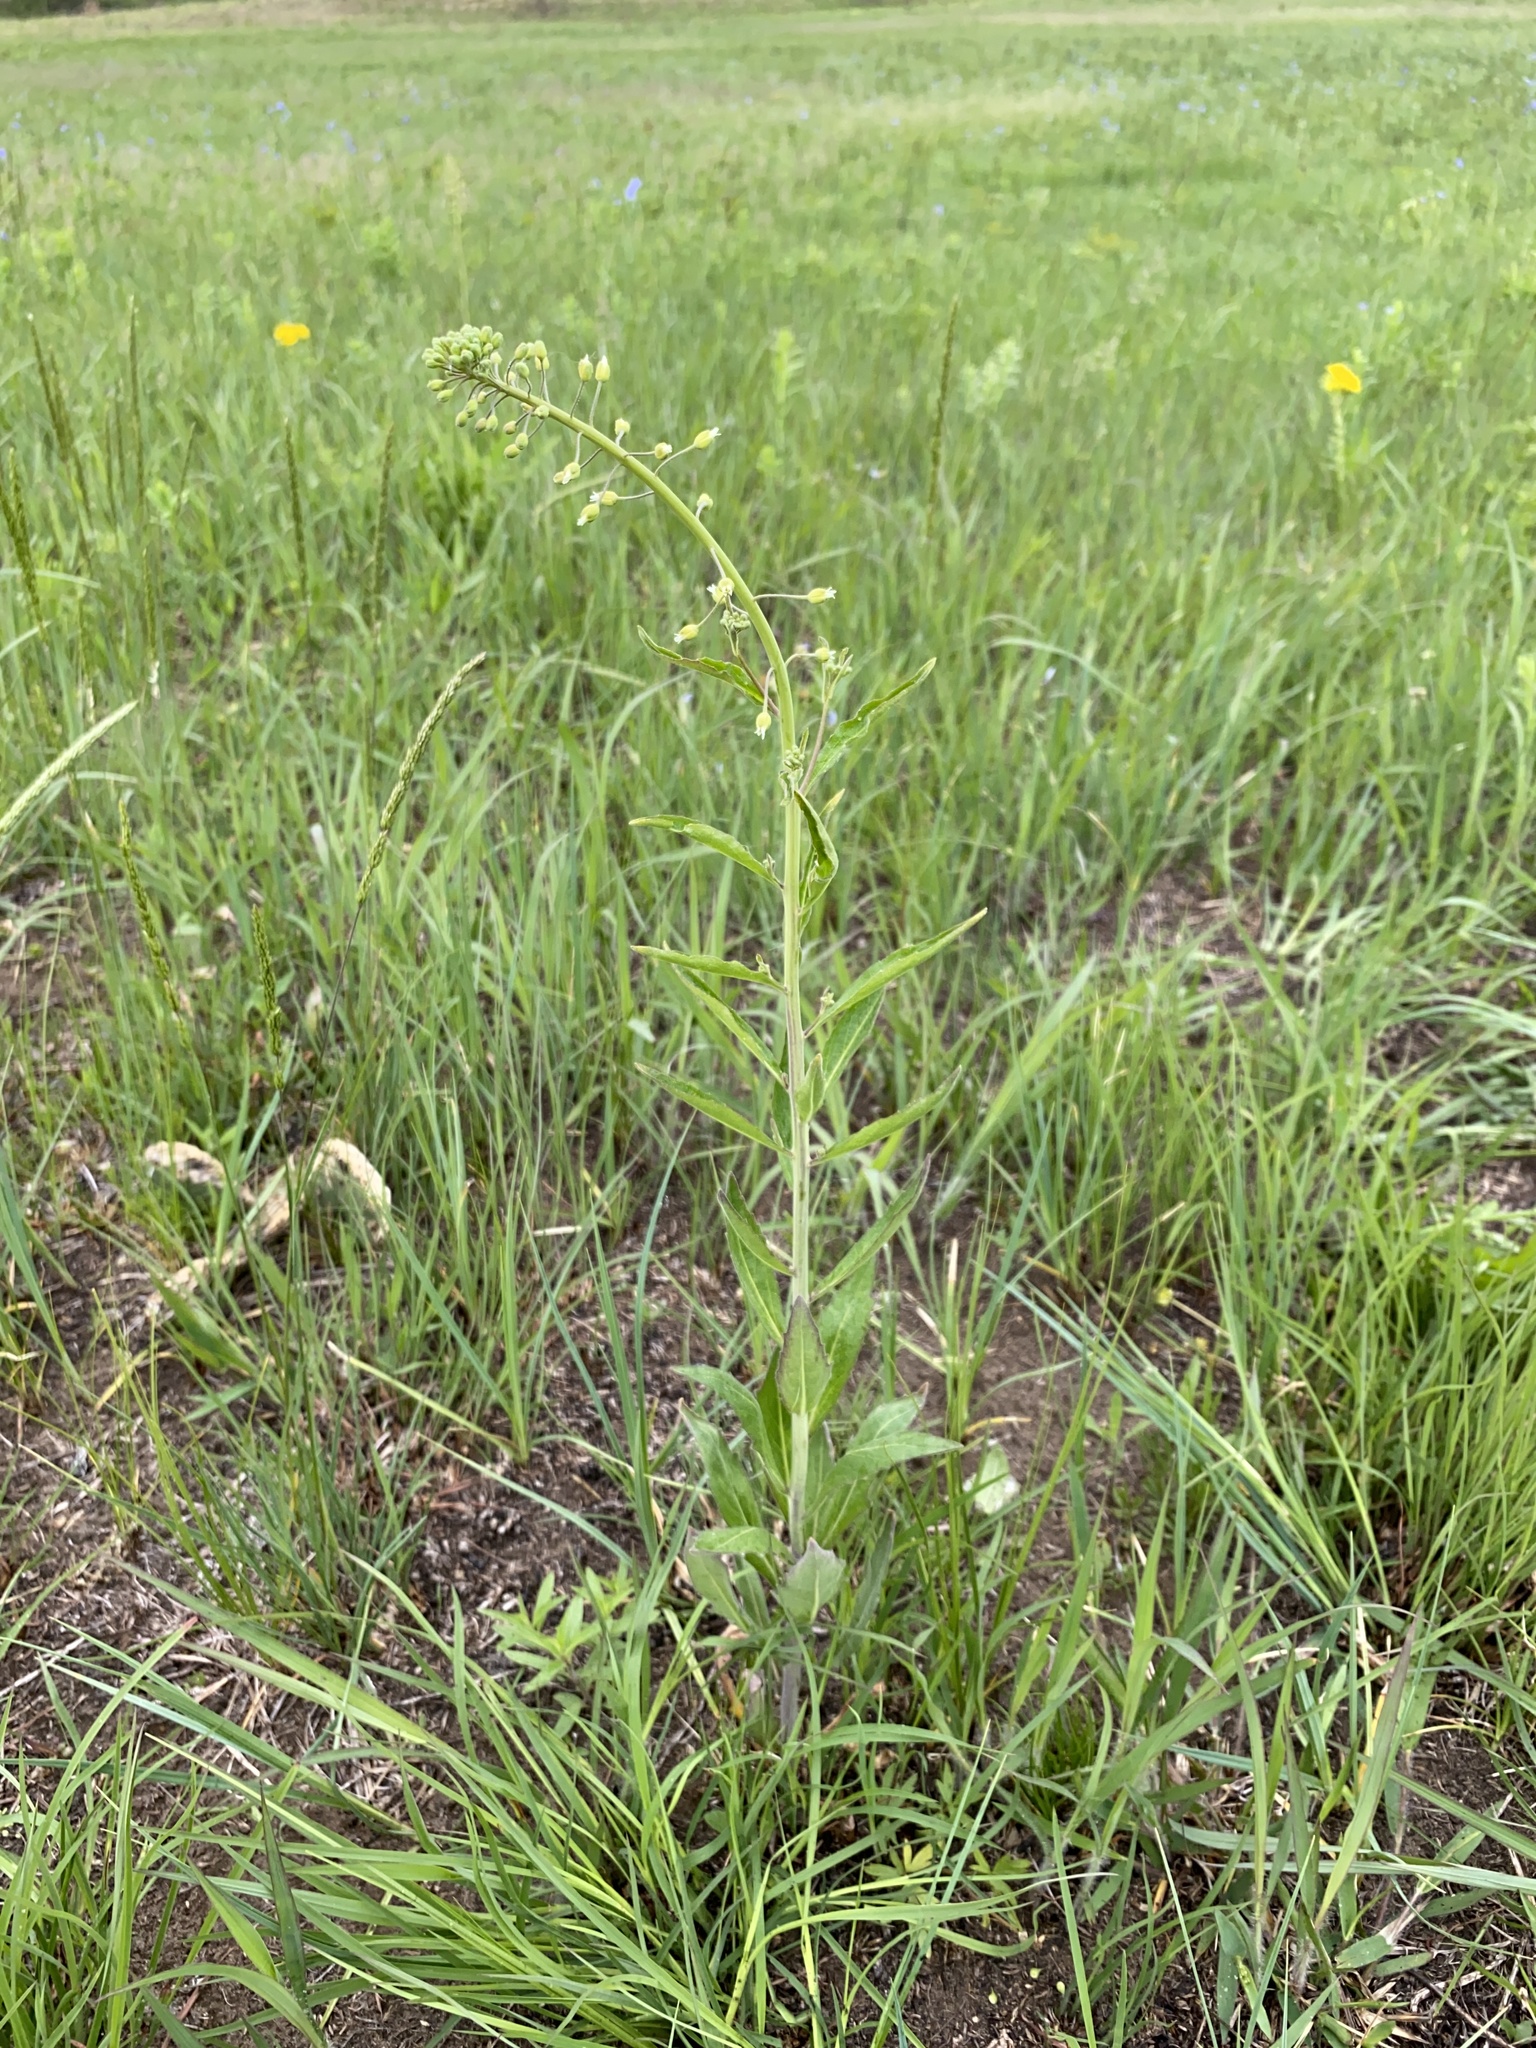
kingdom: Plantae
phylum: Tracheophyta
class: Magnoliopsida
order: Brassicales
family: Brassicaceae
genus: Borodinia
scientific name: Borodinia canadensis
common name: Sicklepod
